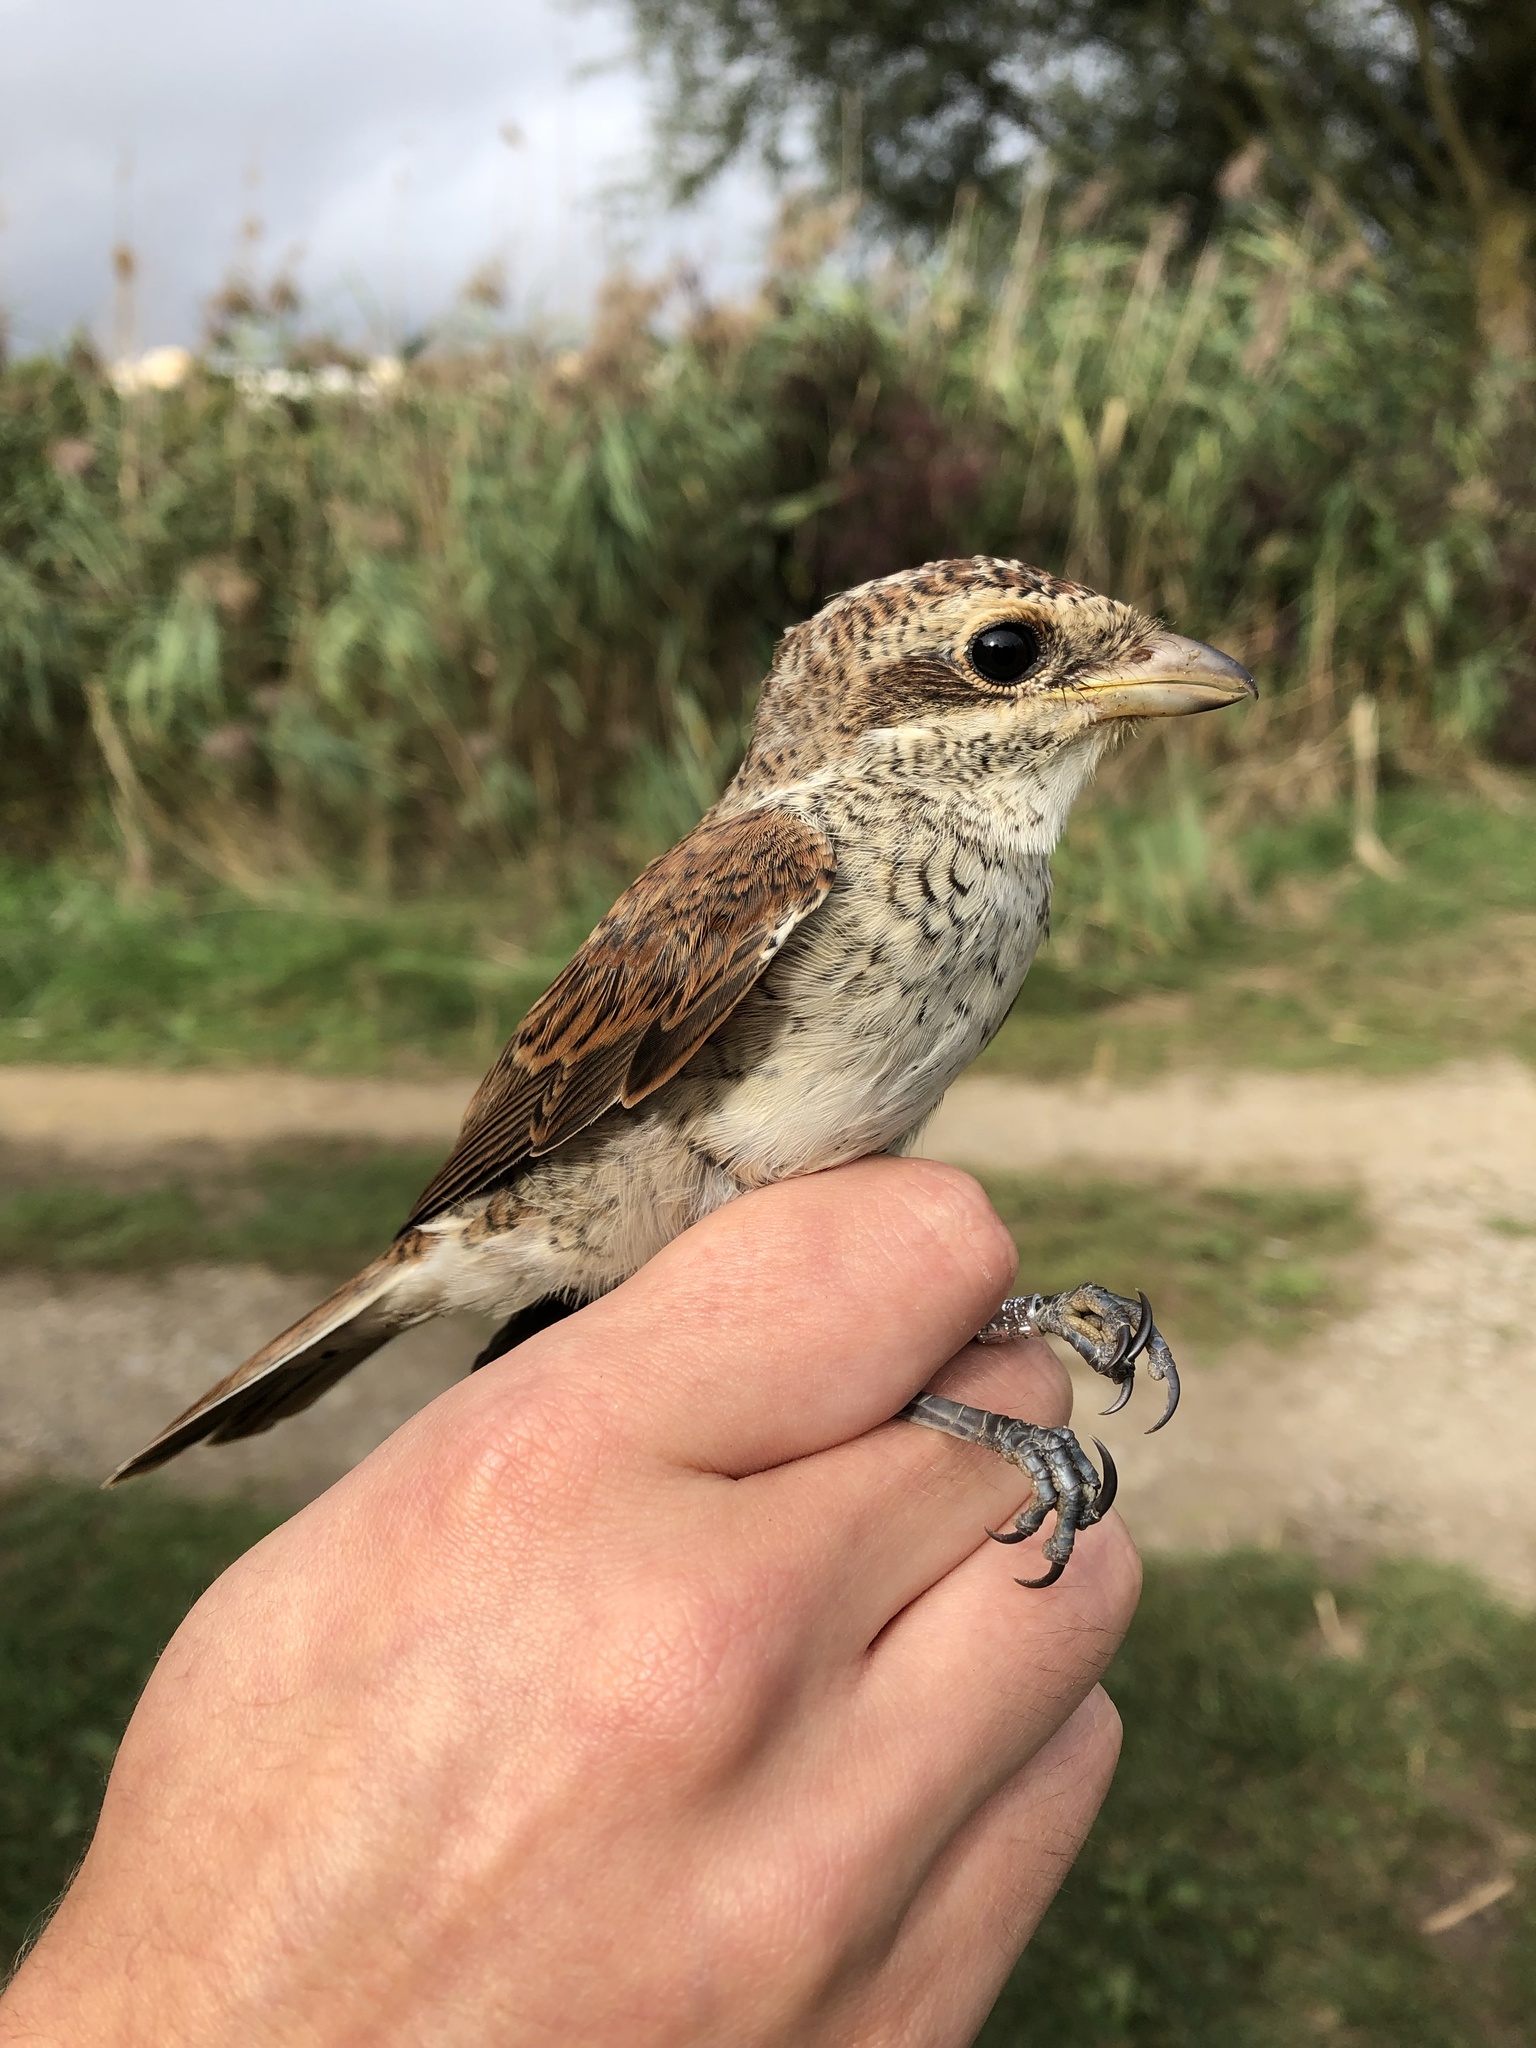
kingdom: Animalia
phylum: Chordata
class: Aves
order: Passeriformes
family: Laniidae
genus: Lanius
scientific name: Lanius collurio
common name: Red-backed shrike
